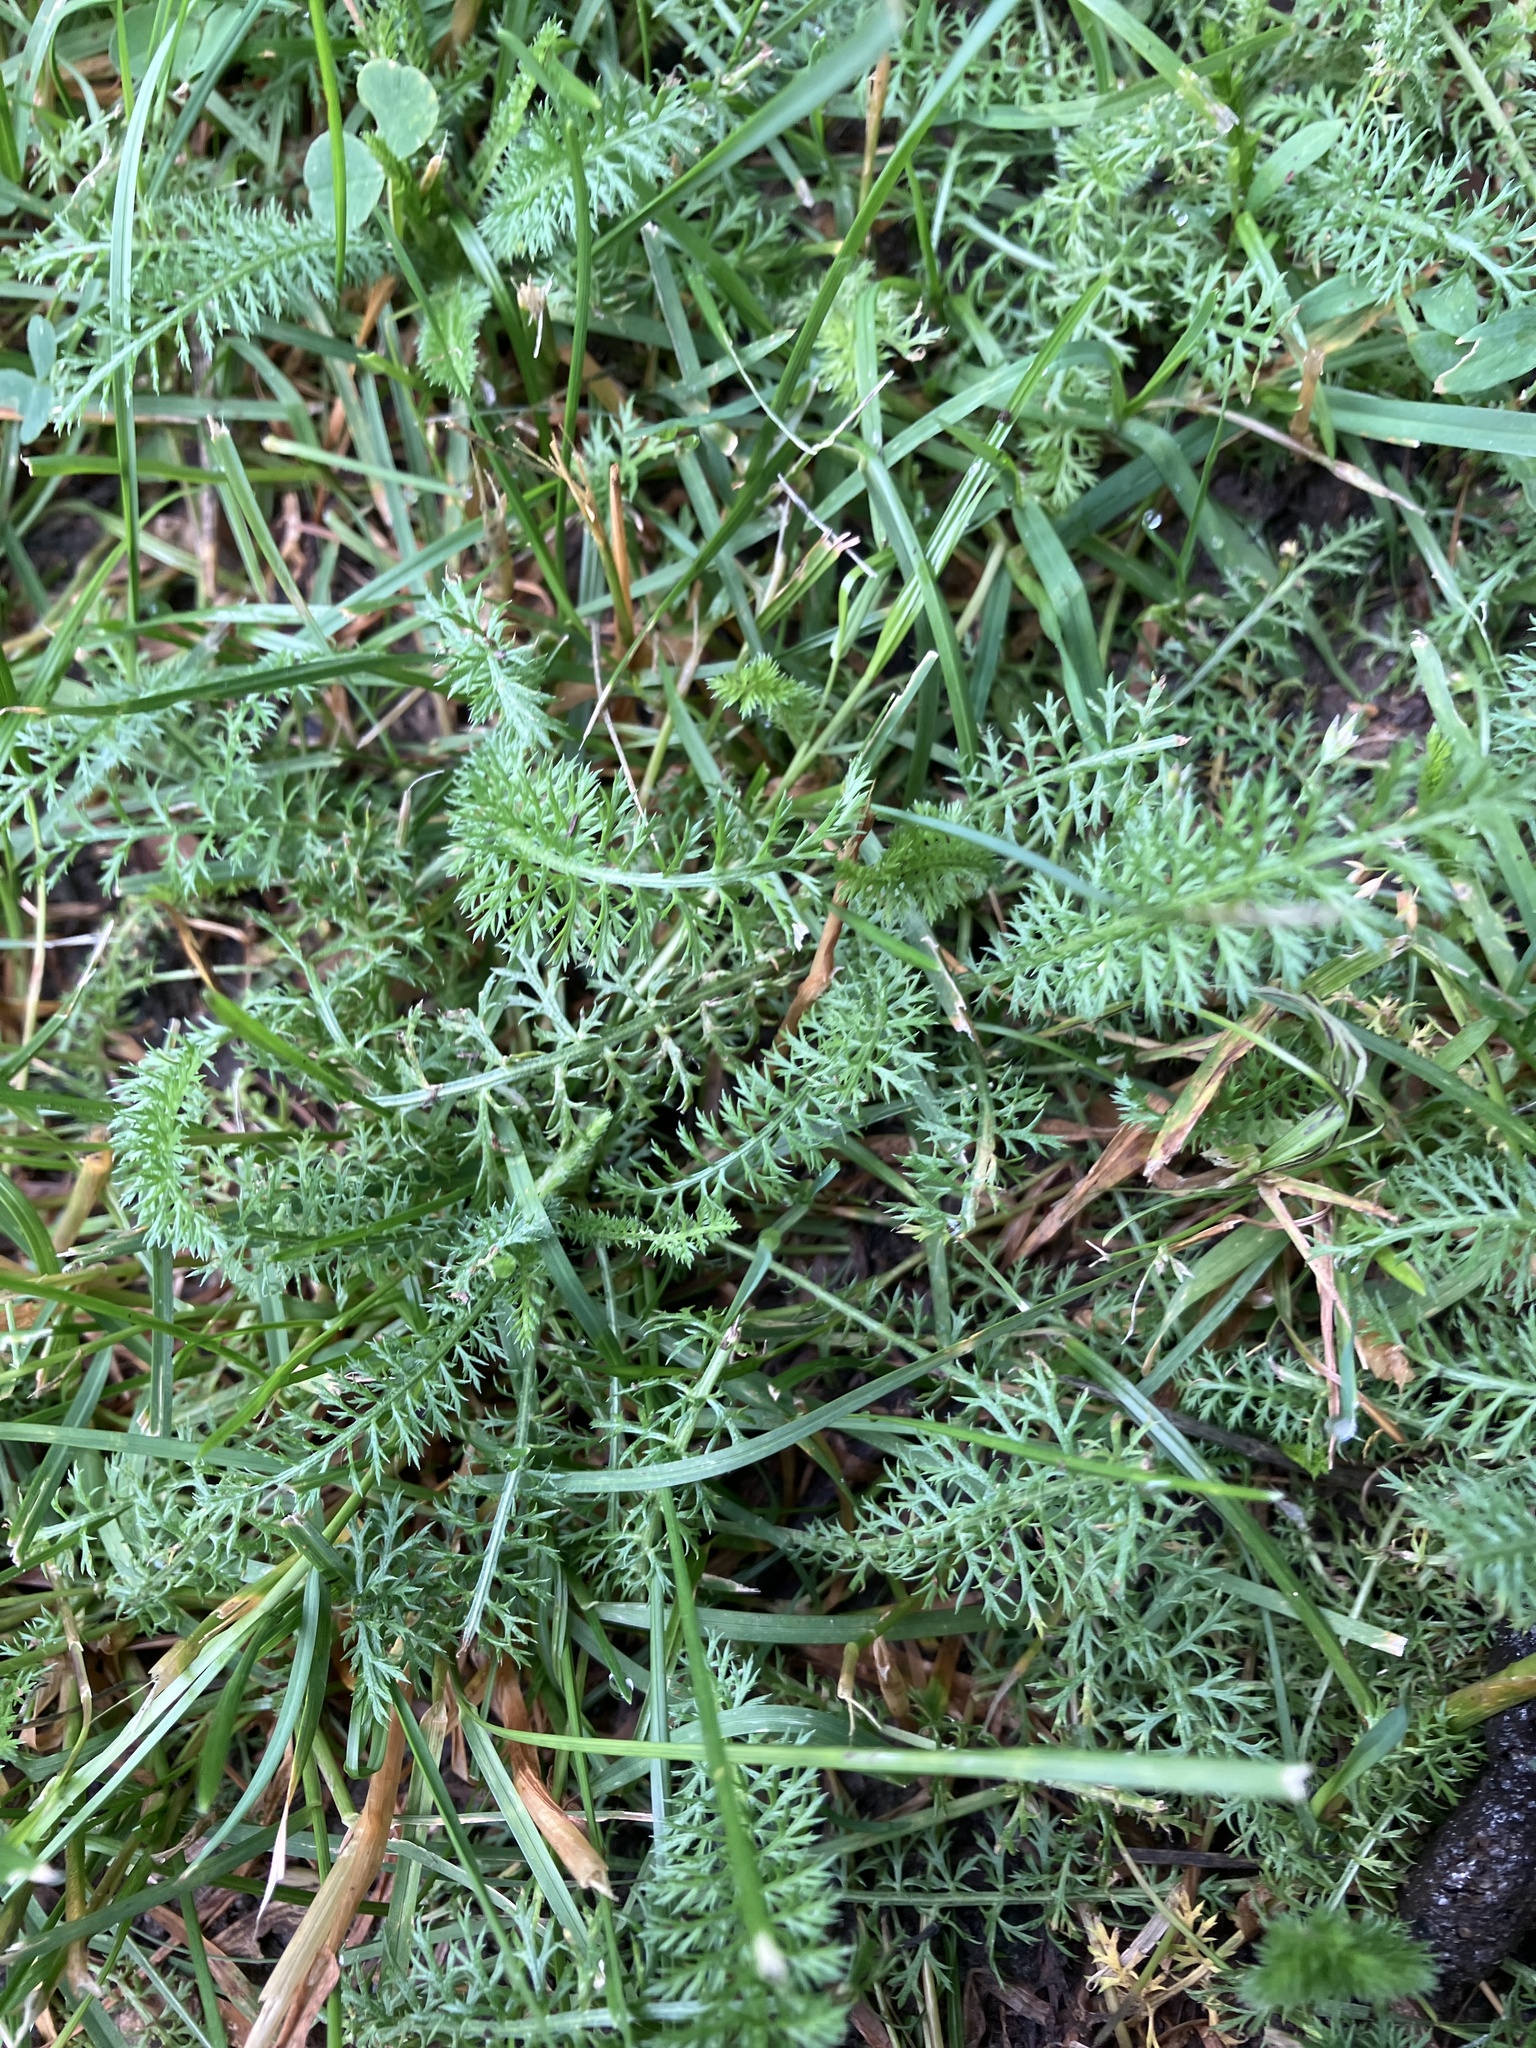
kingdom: Plantae
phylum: Tracheophyta
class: Magnoliopsida
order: Asterales
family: Asteraceae
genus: Achillea
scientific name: Achillea millefolium
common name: Yarrow
